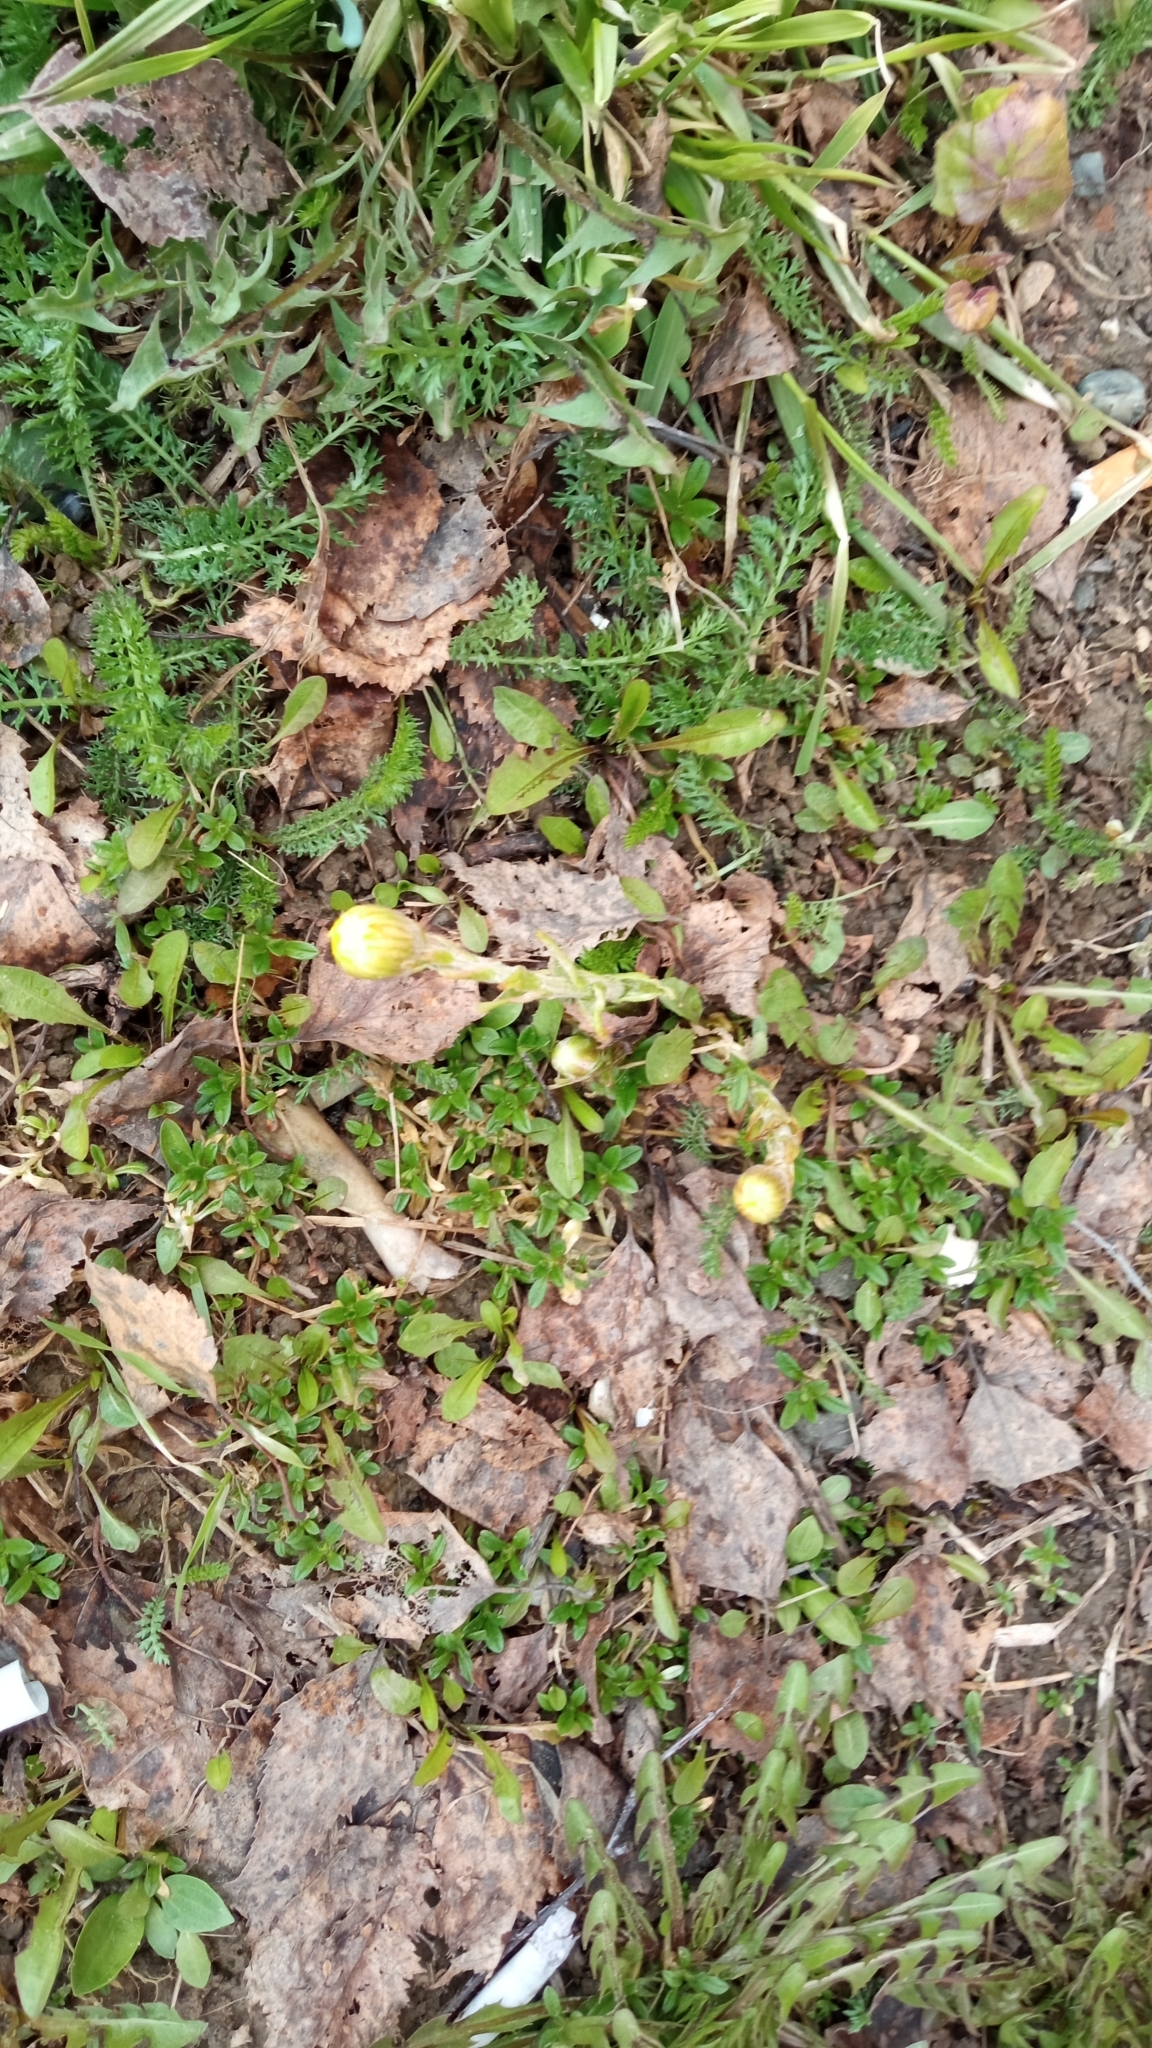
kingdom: Plantae
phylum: Tracheophyta
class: Magnoliopsida
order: Asterales
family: Asteraceae
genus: Tussilago
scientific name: Tussilago farfara
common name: Coltsfoot
